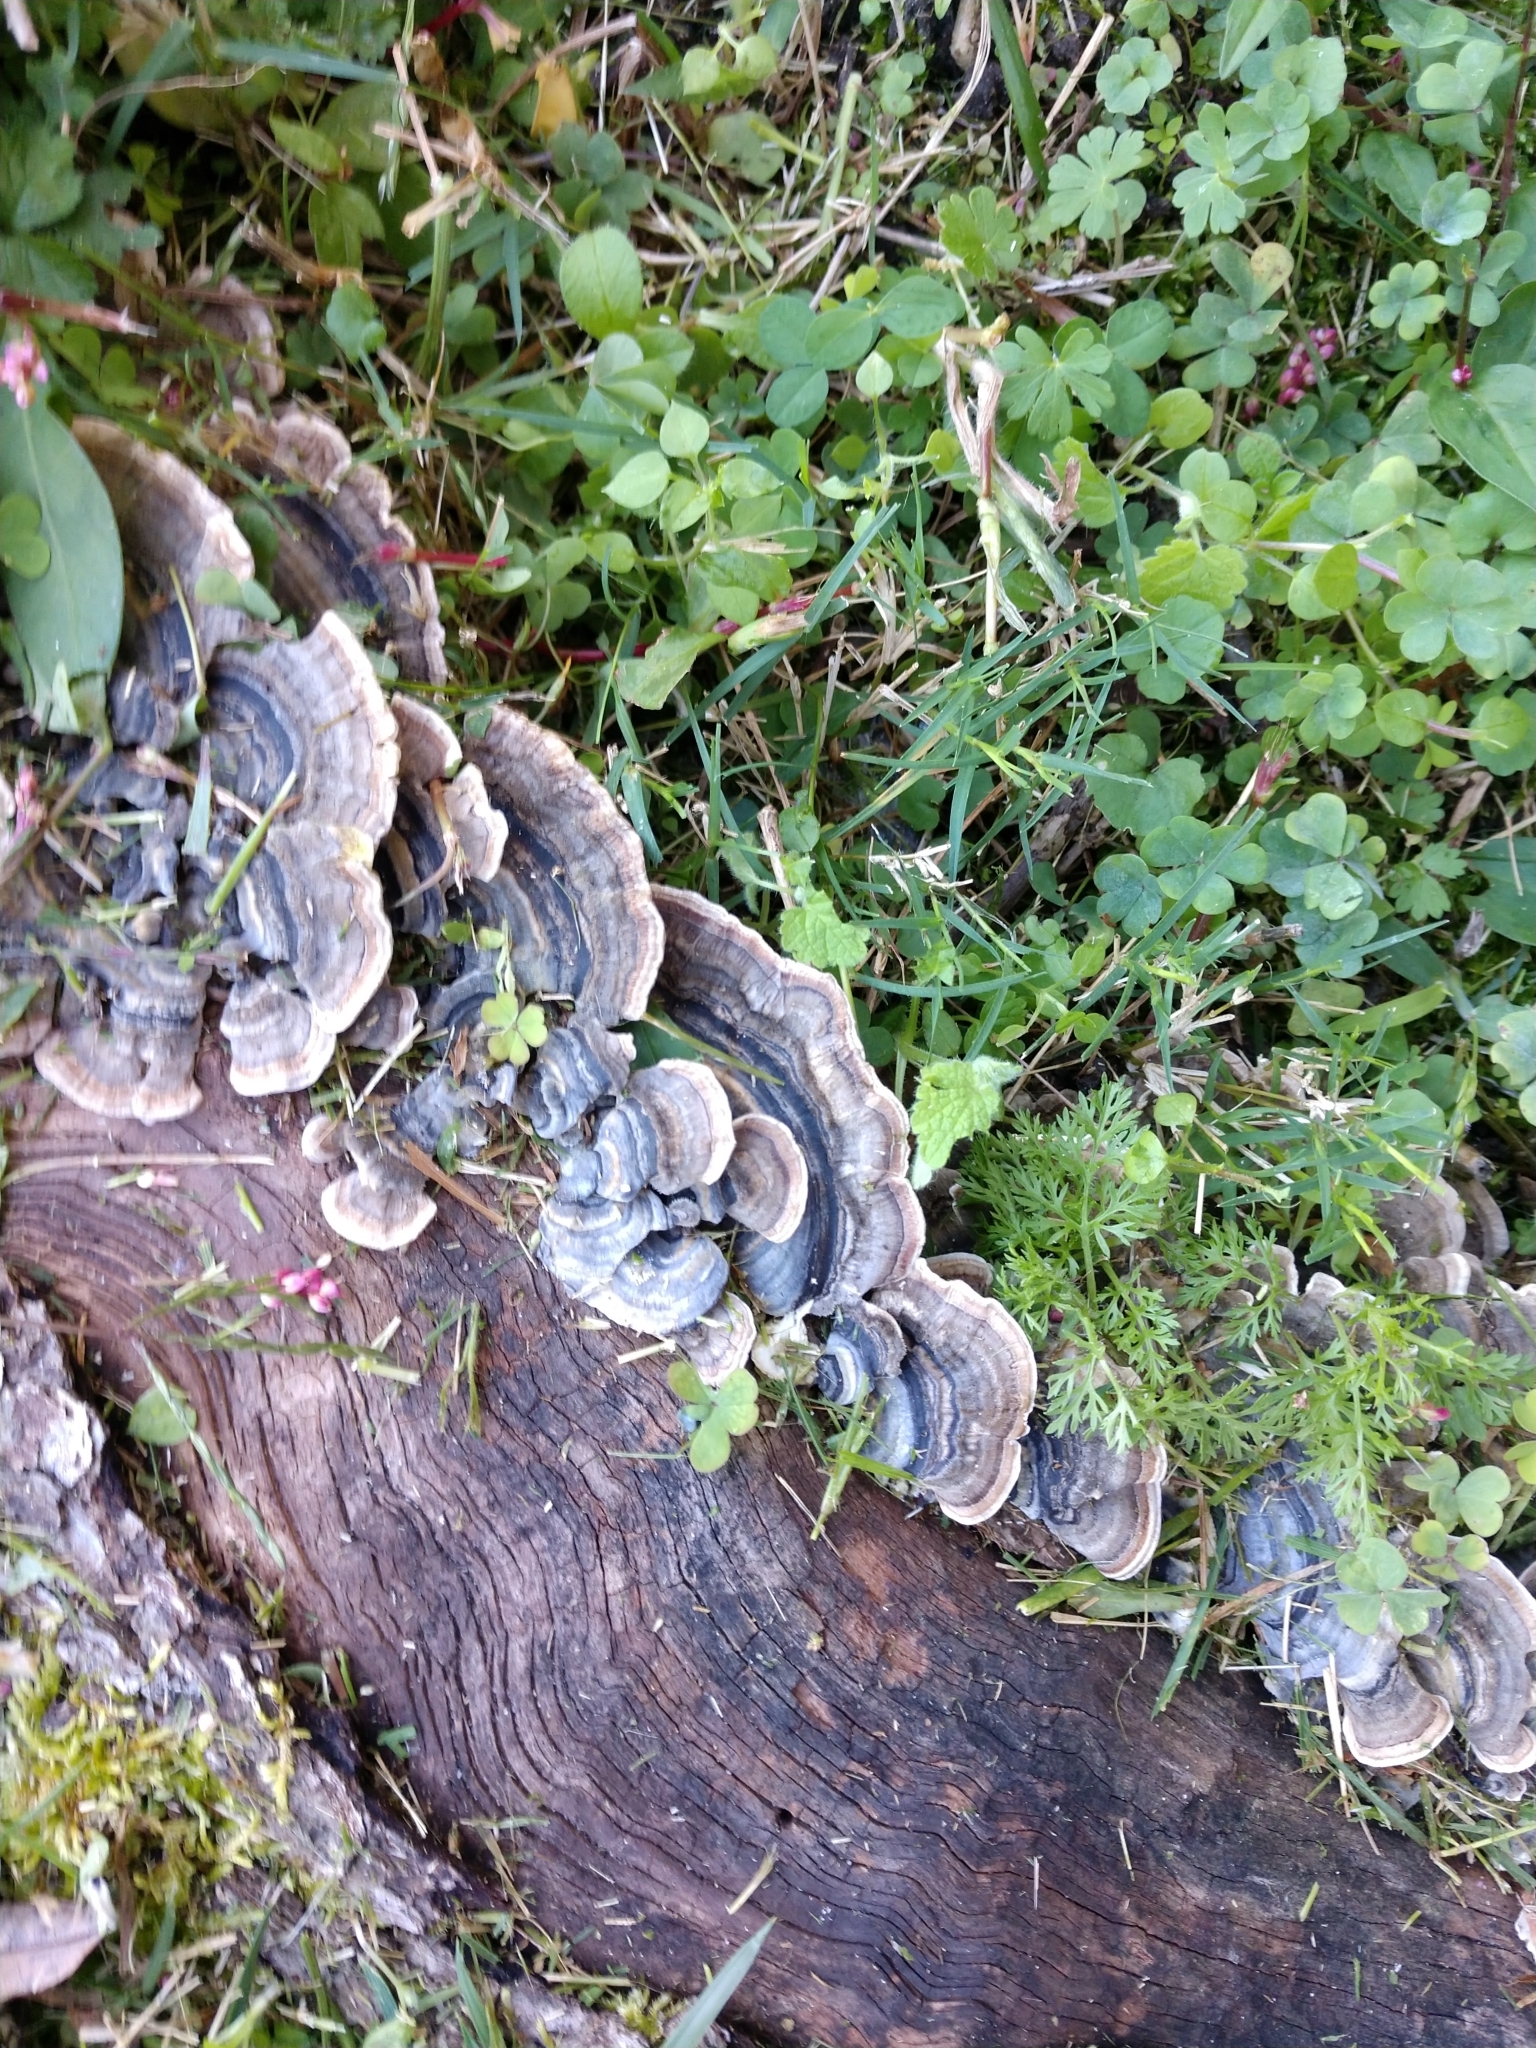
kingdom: Fungi
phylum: Basidiomycota
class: Agaricomycetes
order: Polyporales
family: Polyporaceae
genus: Trametes
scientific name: Trametes versicolor
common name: Turkeytail
